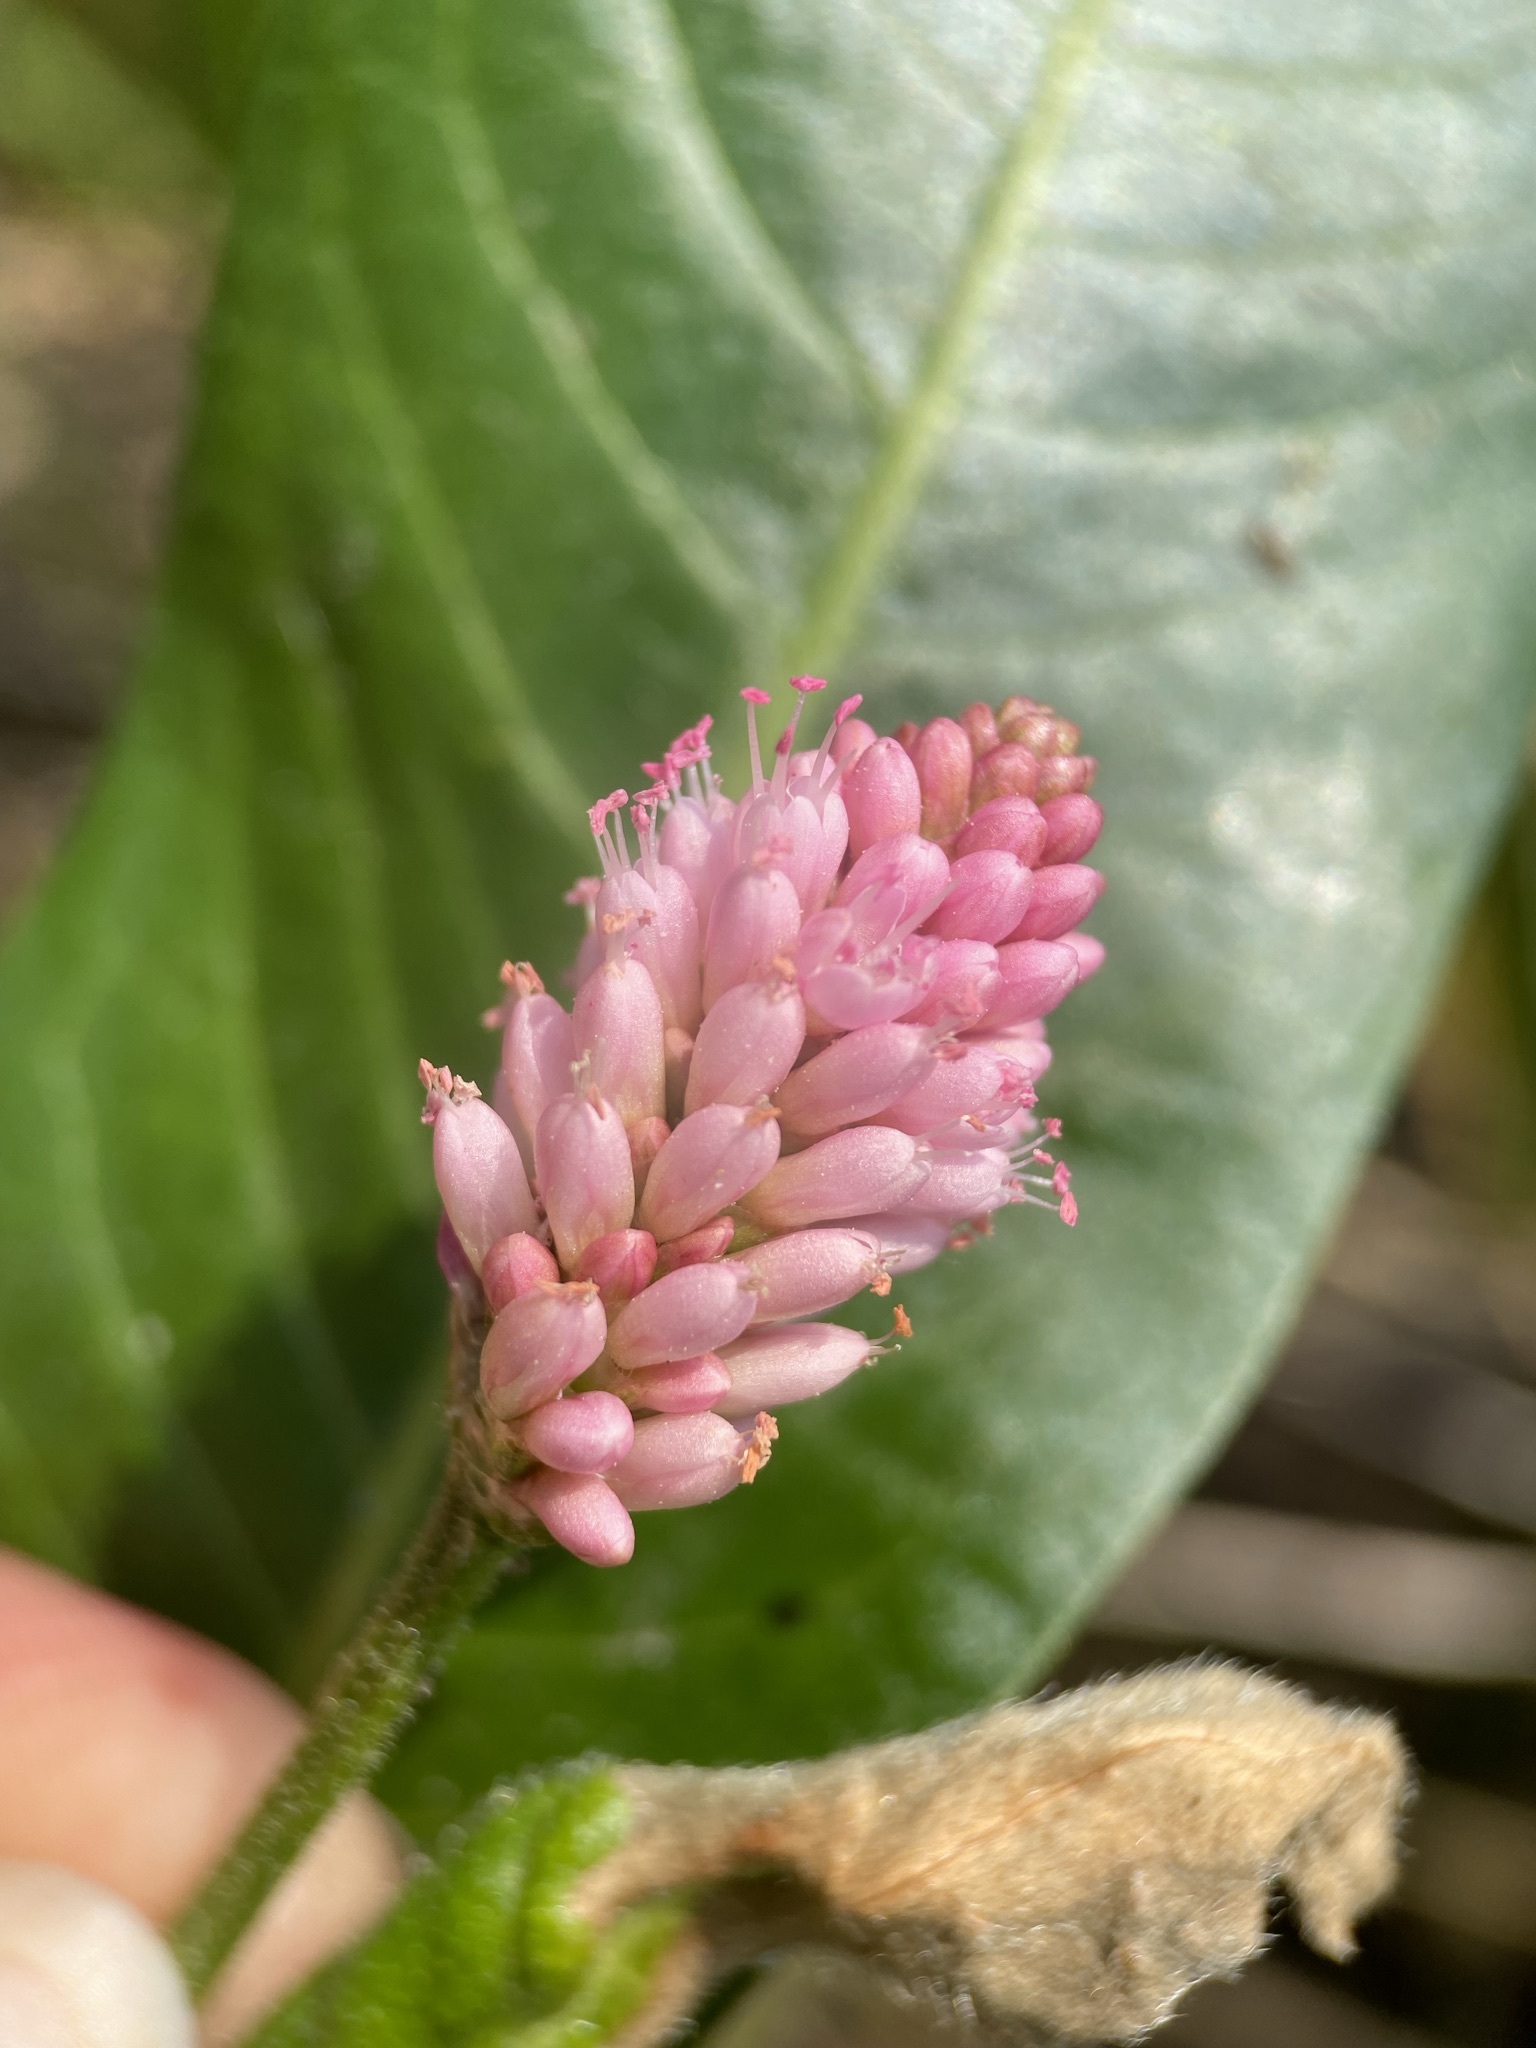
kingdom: Plantae
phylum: Tracheophyta
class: Magnoliopsida
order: Caryophyllales
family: Polygonaceae
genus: Persicaria
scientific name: Persicaria amphibia
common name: Amphibious bistort
